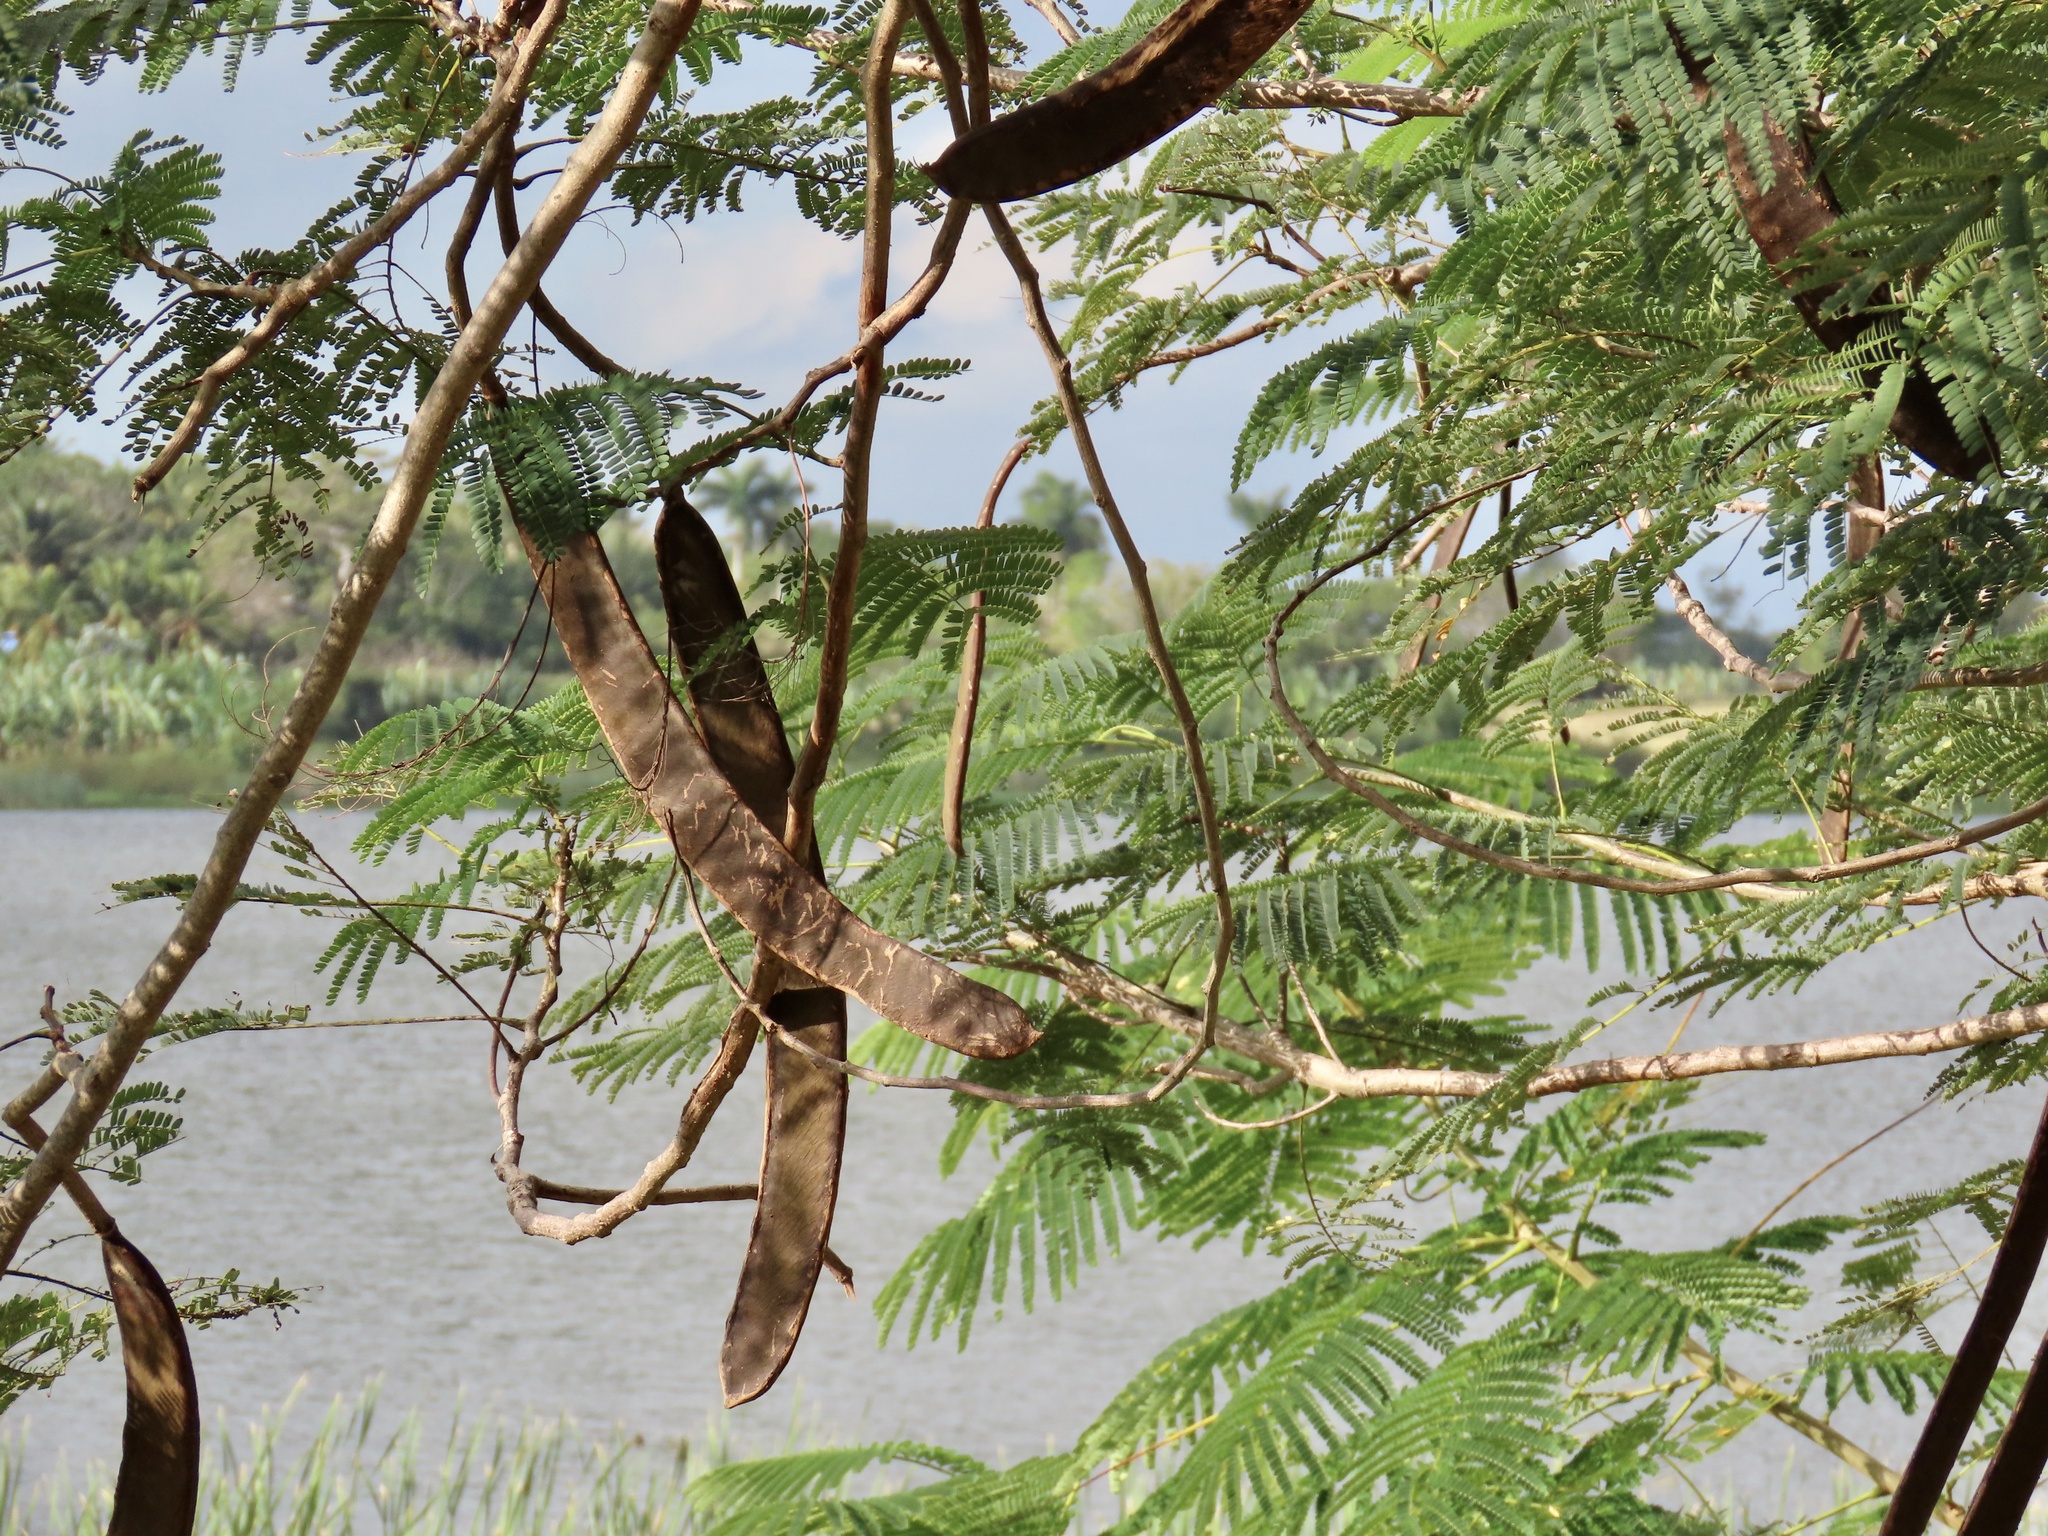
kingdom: Plantae
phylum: Tracheophyta
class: Magnoliopsida
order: Fabales
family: Fabaceae
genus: Delonix
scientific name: Delonix regia
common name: Royal poinciana
